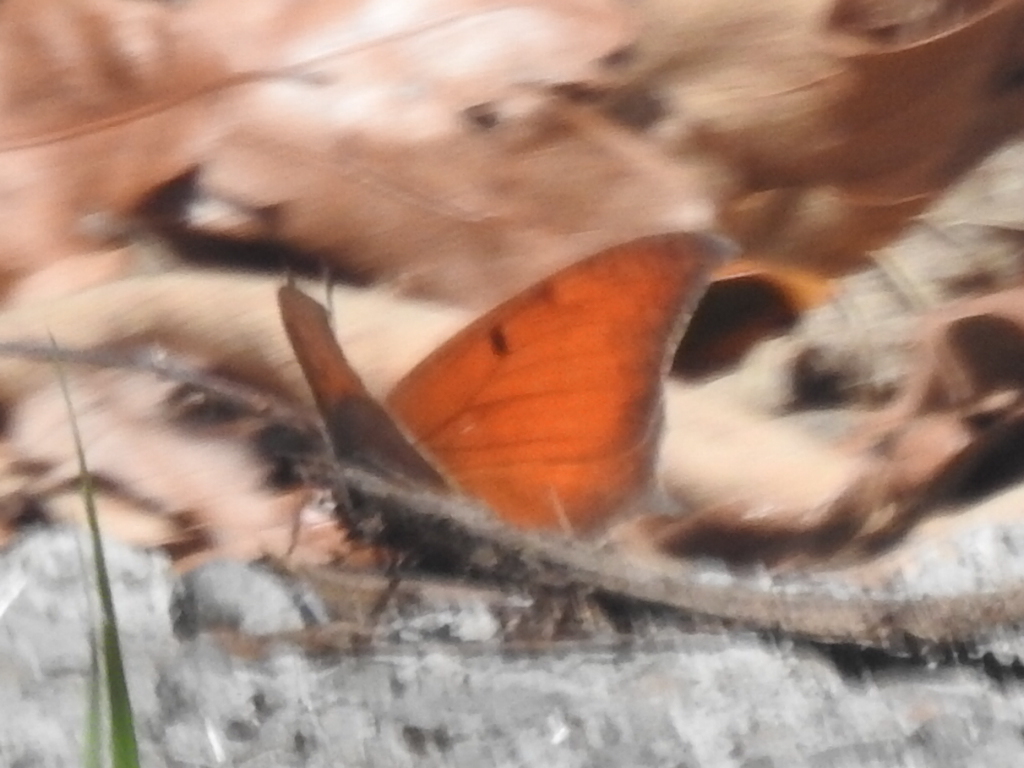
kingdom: Animalia
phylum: Arthropoda
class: Insecta
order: Lepidoptera
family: Nymphalidae
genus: Anaea
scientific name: Anaea andria
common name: Goatweed leafwing
